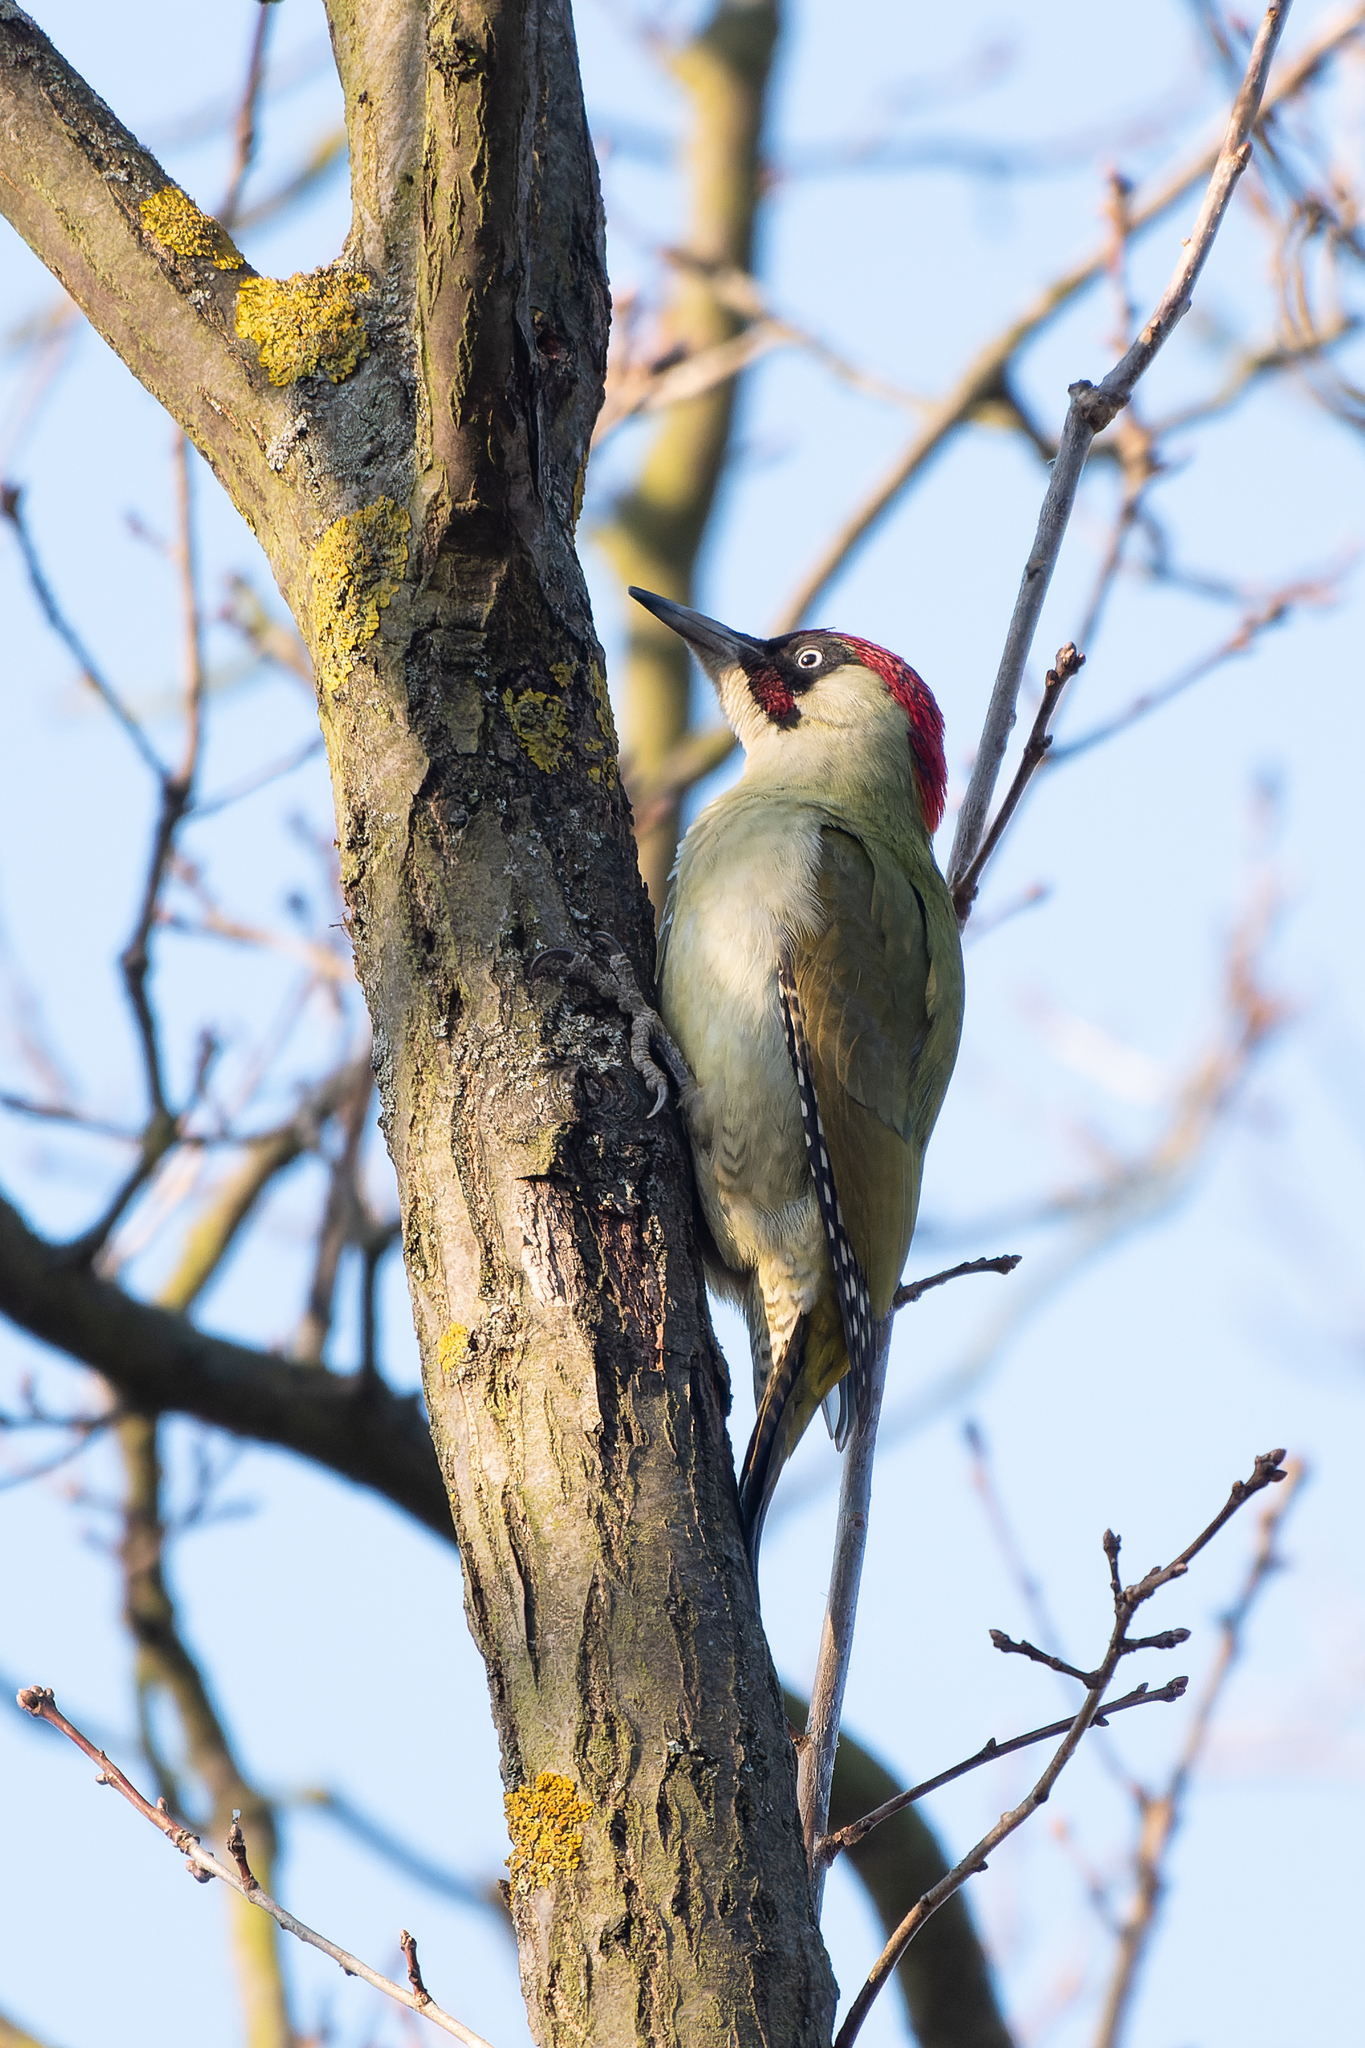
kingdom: Animalia
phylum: Chordata
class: Aves
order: Piciformes
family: Picidae
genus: Picus
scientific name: Picus viridis
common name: European green woodpecker
